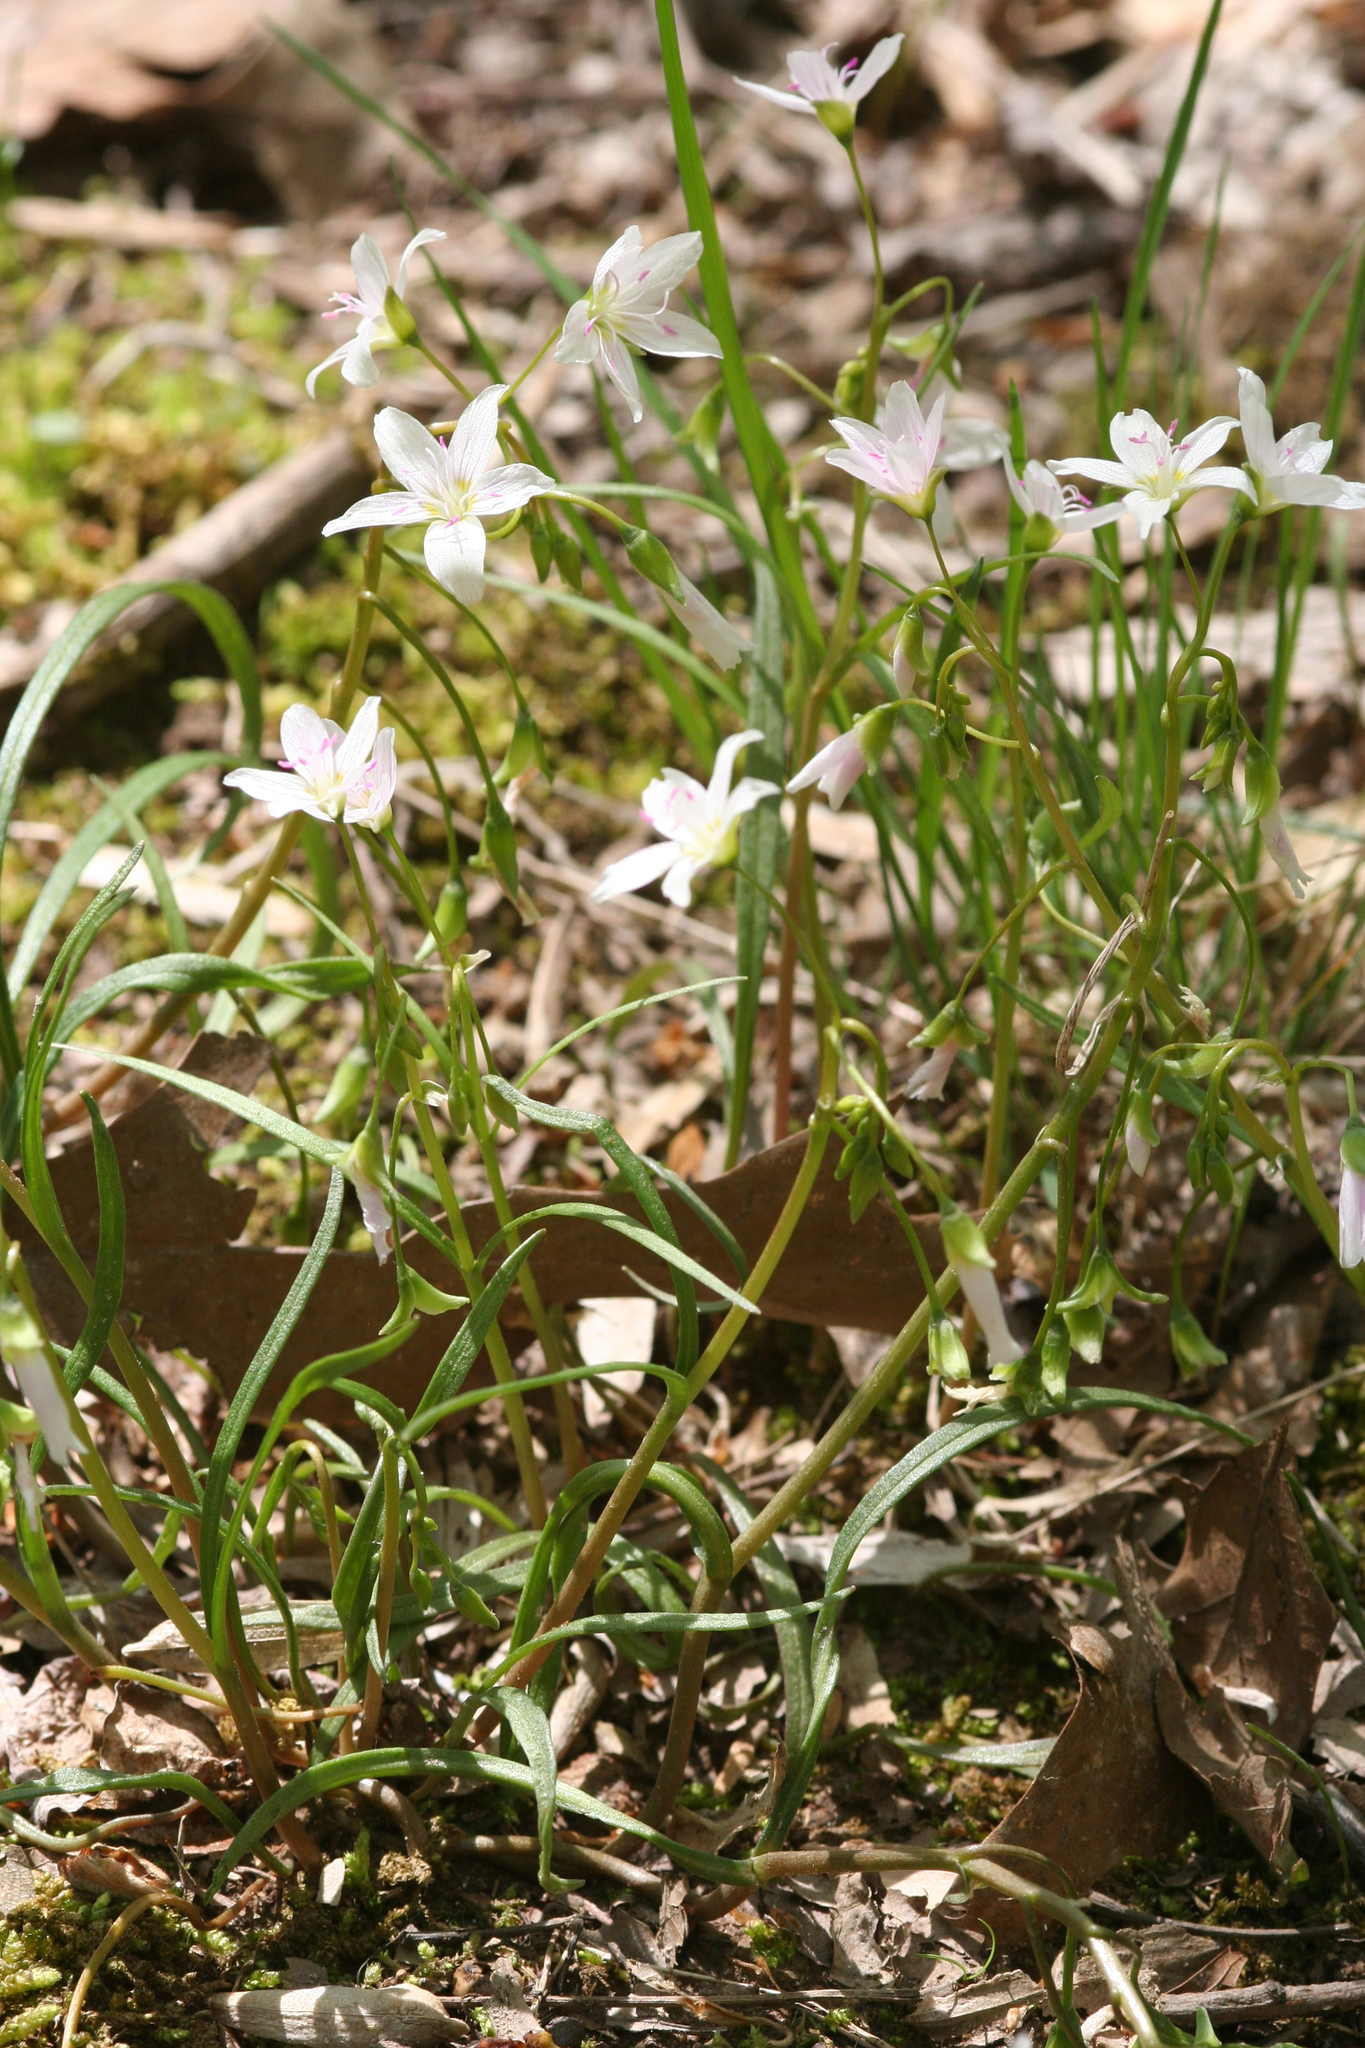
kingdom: Plantae
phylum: Tracheophyta
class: Magnoliopsida
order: Caryophyllales
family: Montiaceae
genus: Claytonia
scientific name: Claytonia virginica
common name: Virginia springbeauty
